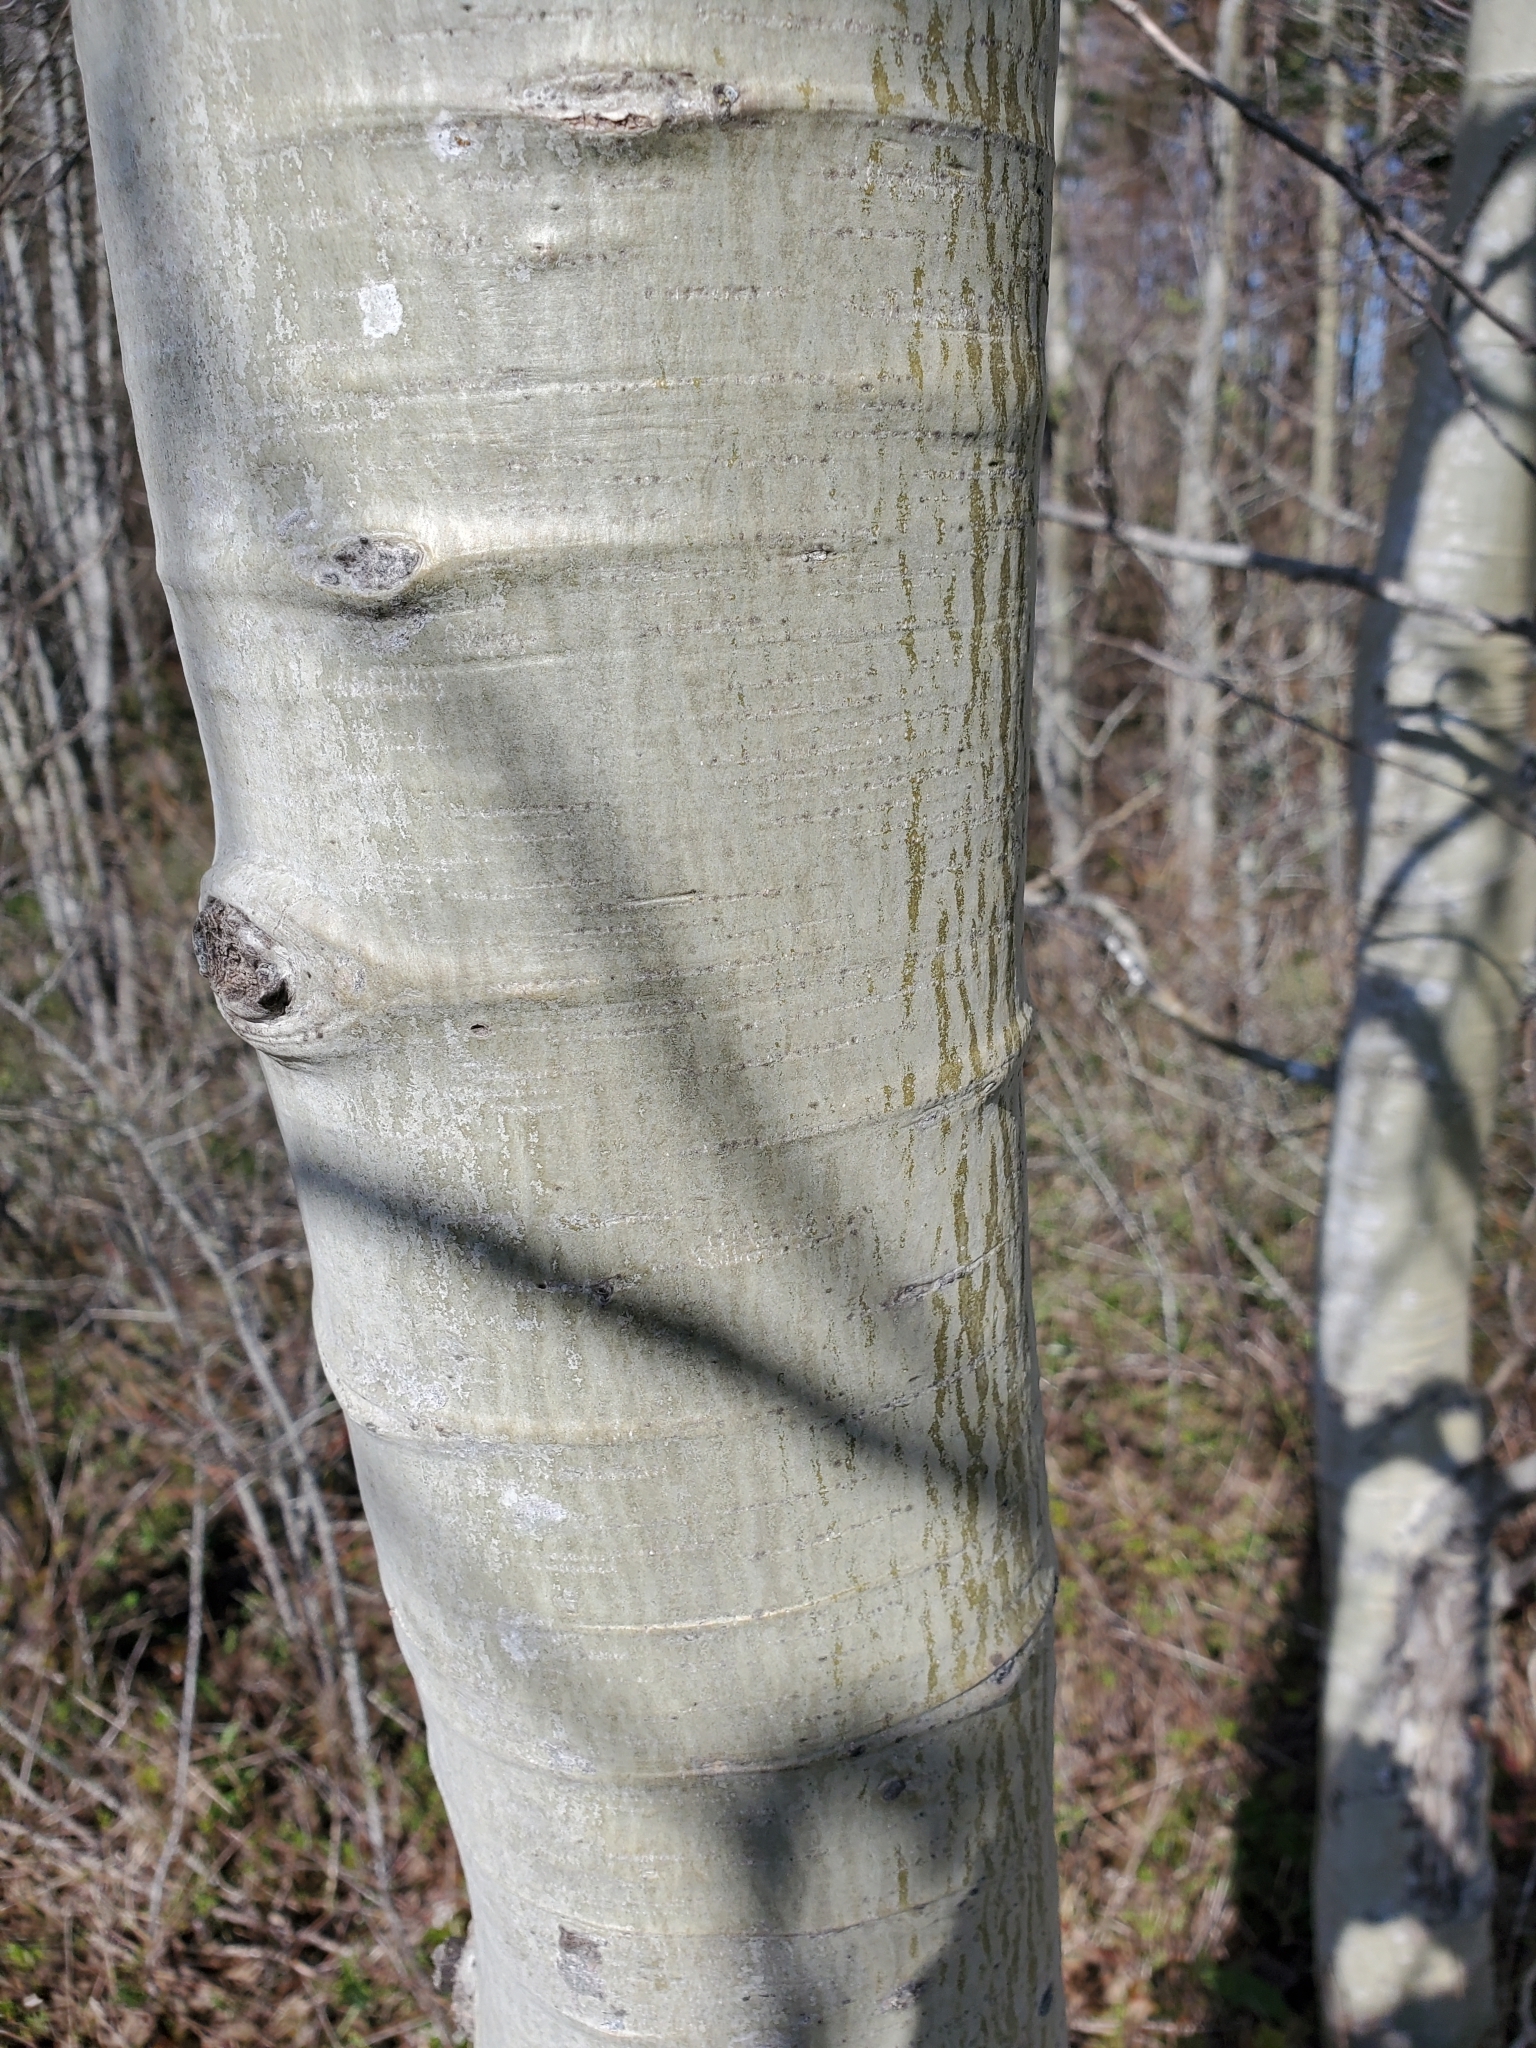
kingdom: Plantae
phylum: Tracheophyta
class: Magnoliopsida
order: Malpighiales
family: Salicaceae
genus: Populus
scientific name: Populus tremuloides
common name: Quaking aspen
